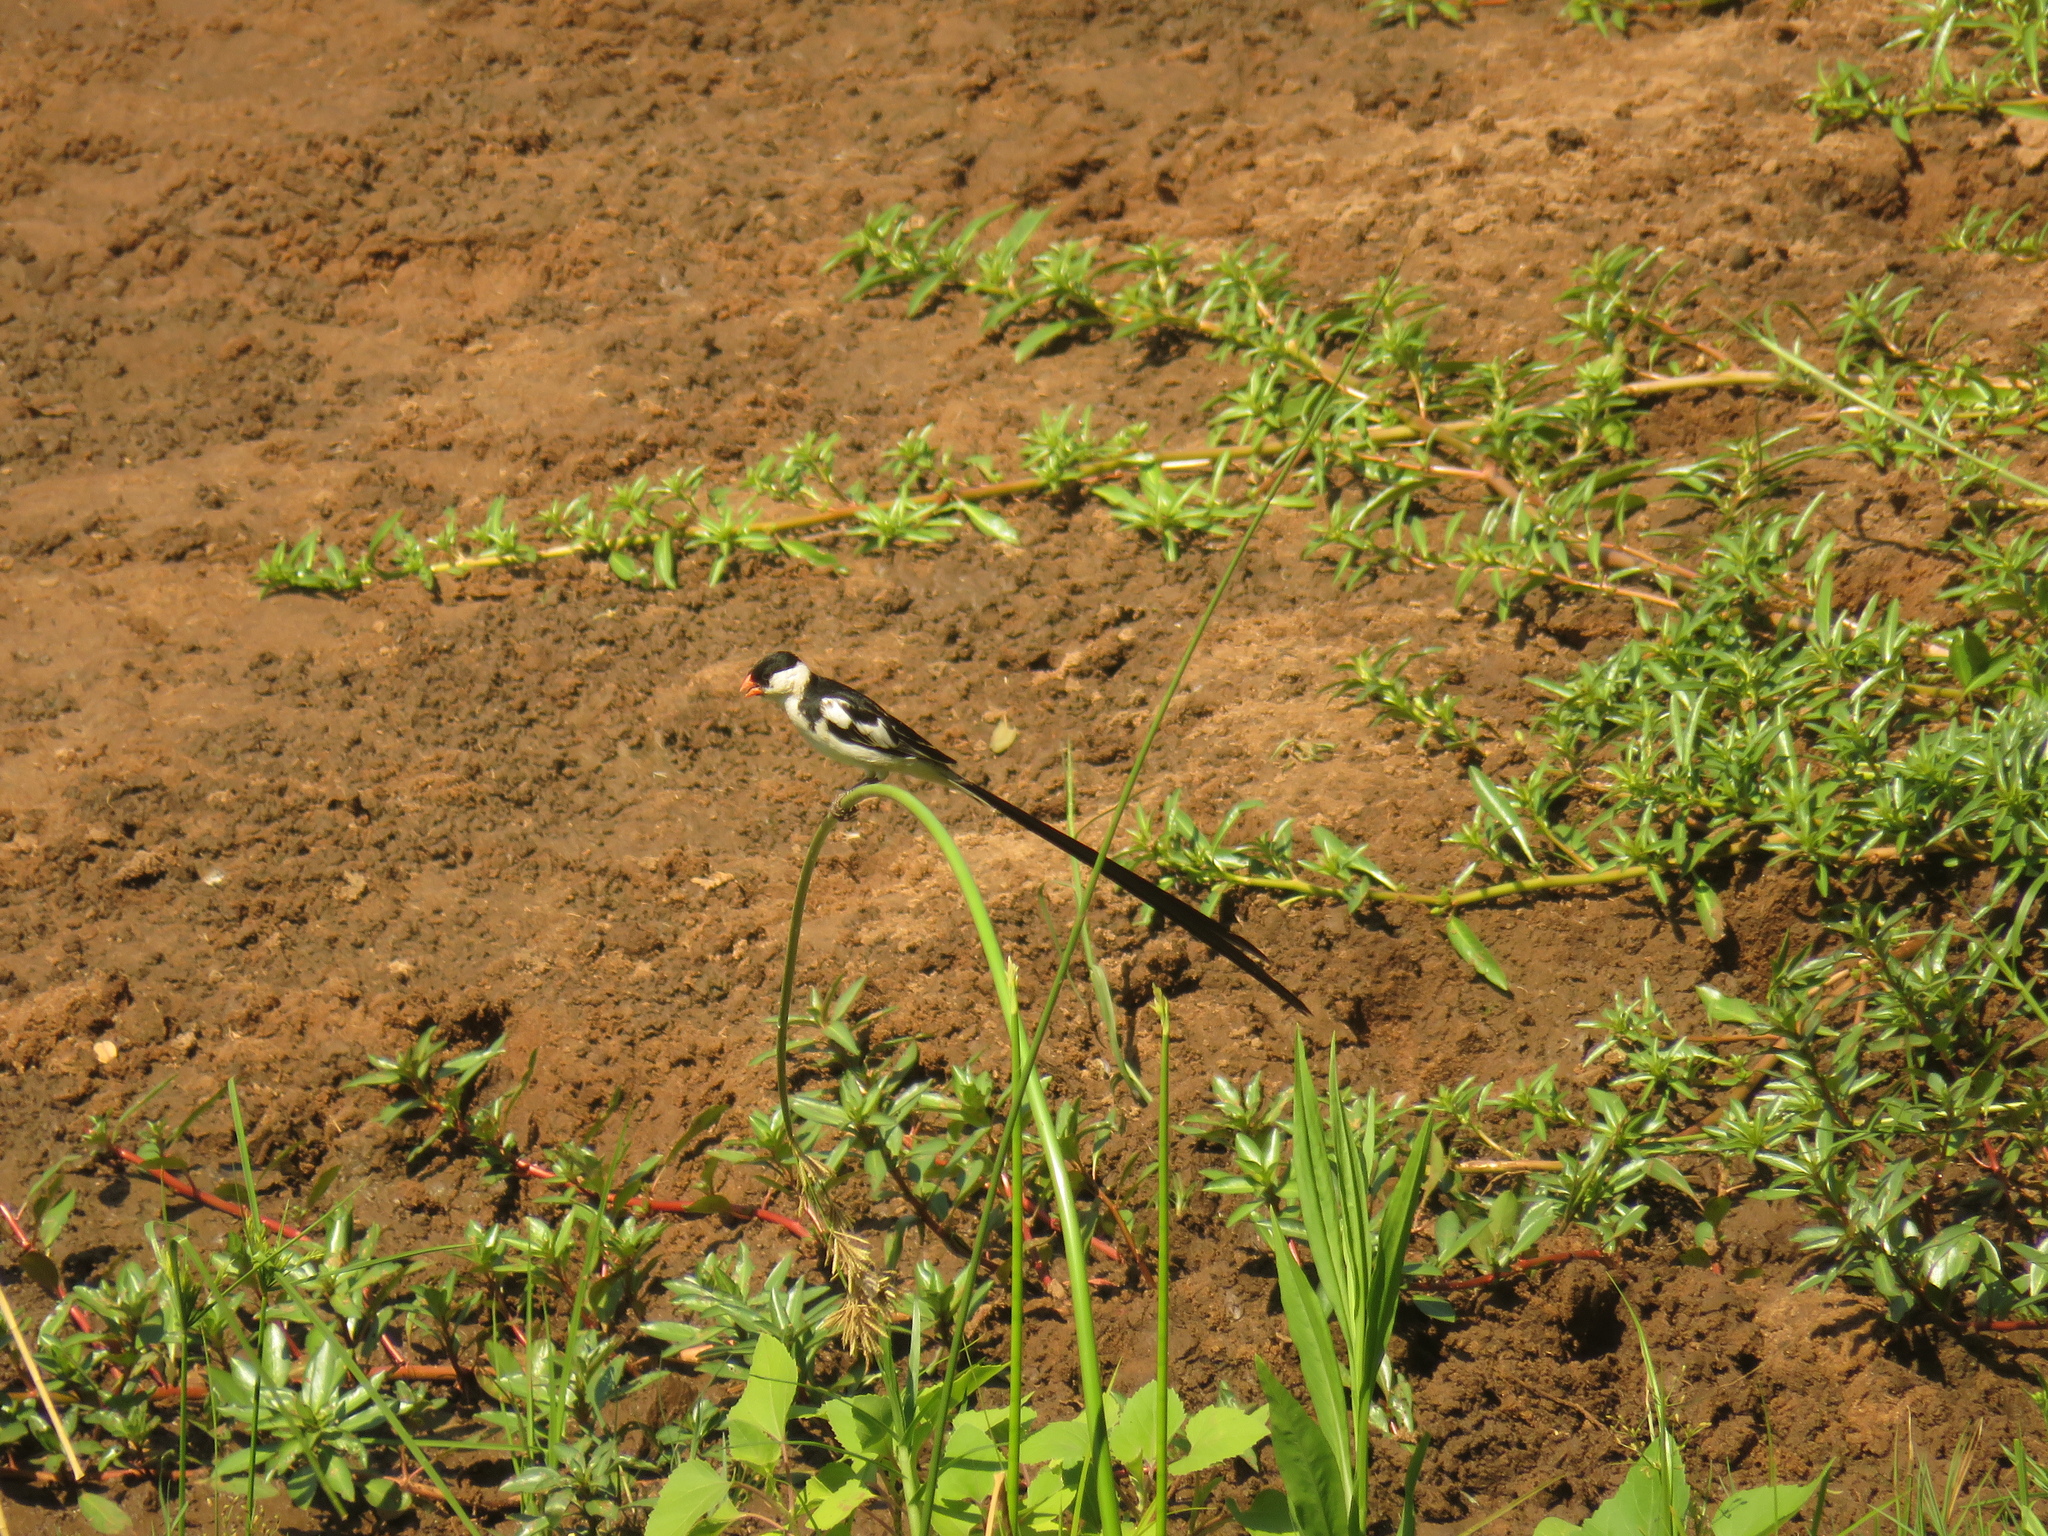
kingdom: Animalia
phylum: Chordata
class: Aves
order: Passeriformes
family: Viduidae
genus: Vidua
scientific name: Vidua macroura
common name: Pin-tailed whydah
